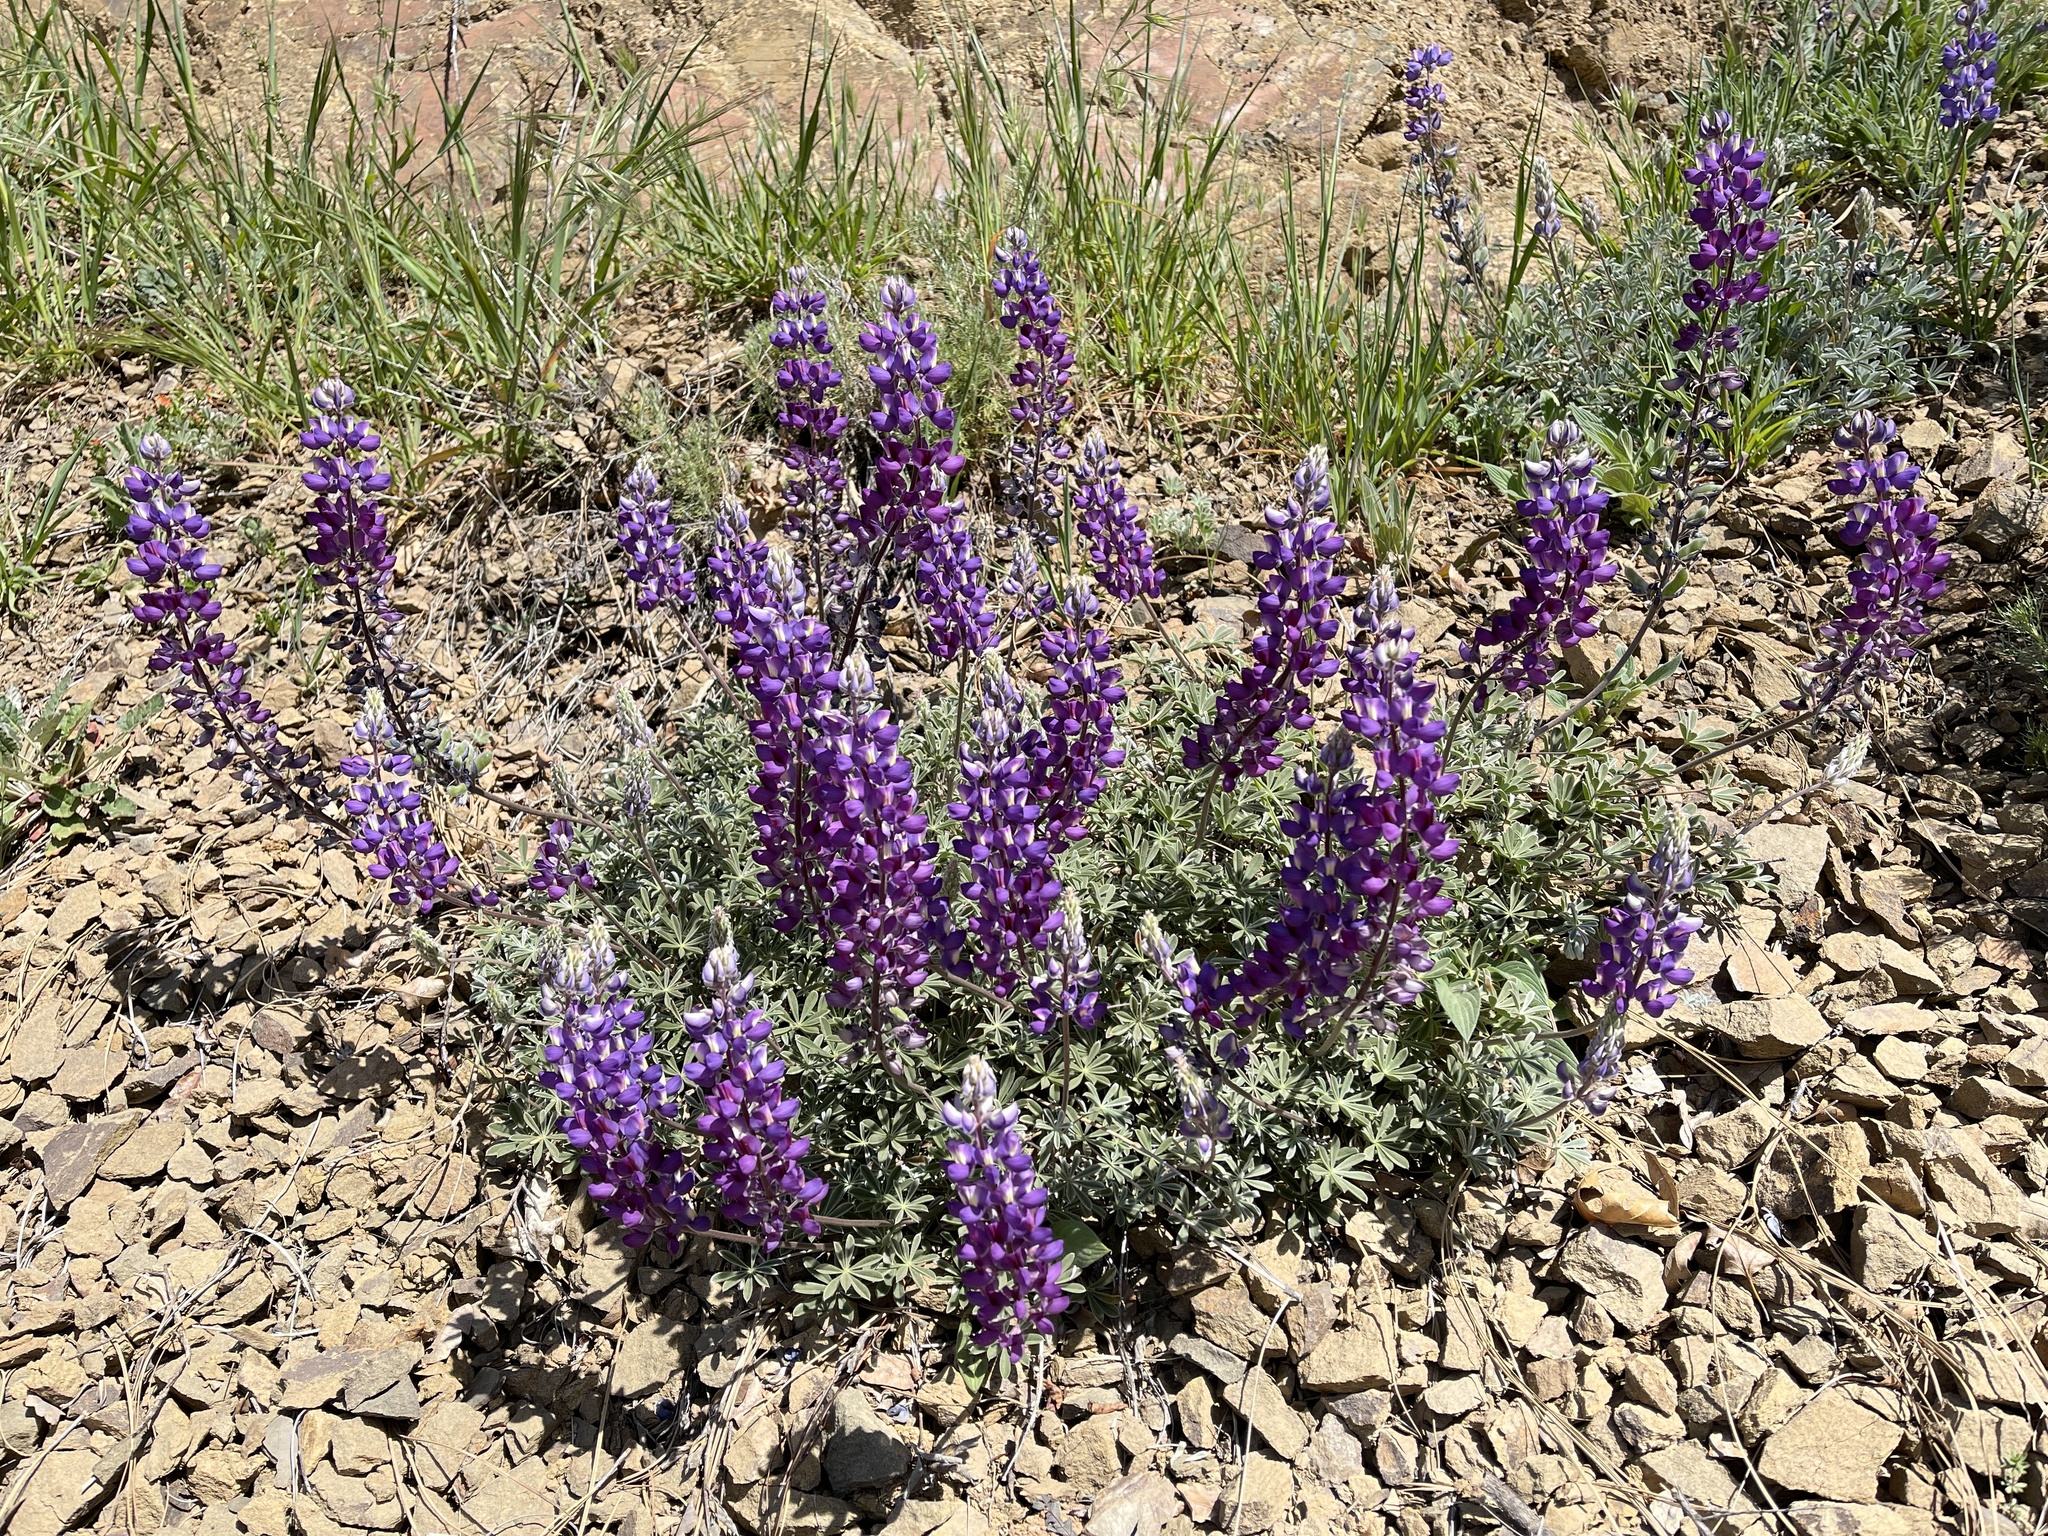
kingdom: Plantae
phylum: Tracheophyta
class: Magnoliopsida
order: Fabales
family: Fabaceae
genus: Lupinus
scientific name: Lupinus albifrons
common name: Foothill lupine
